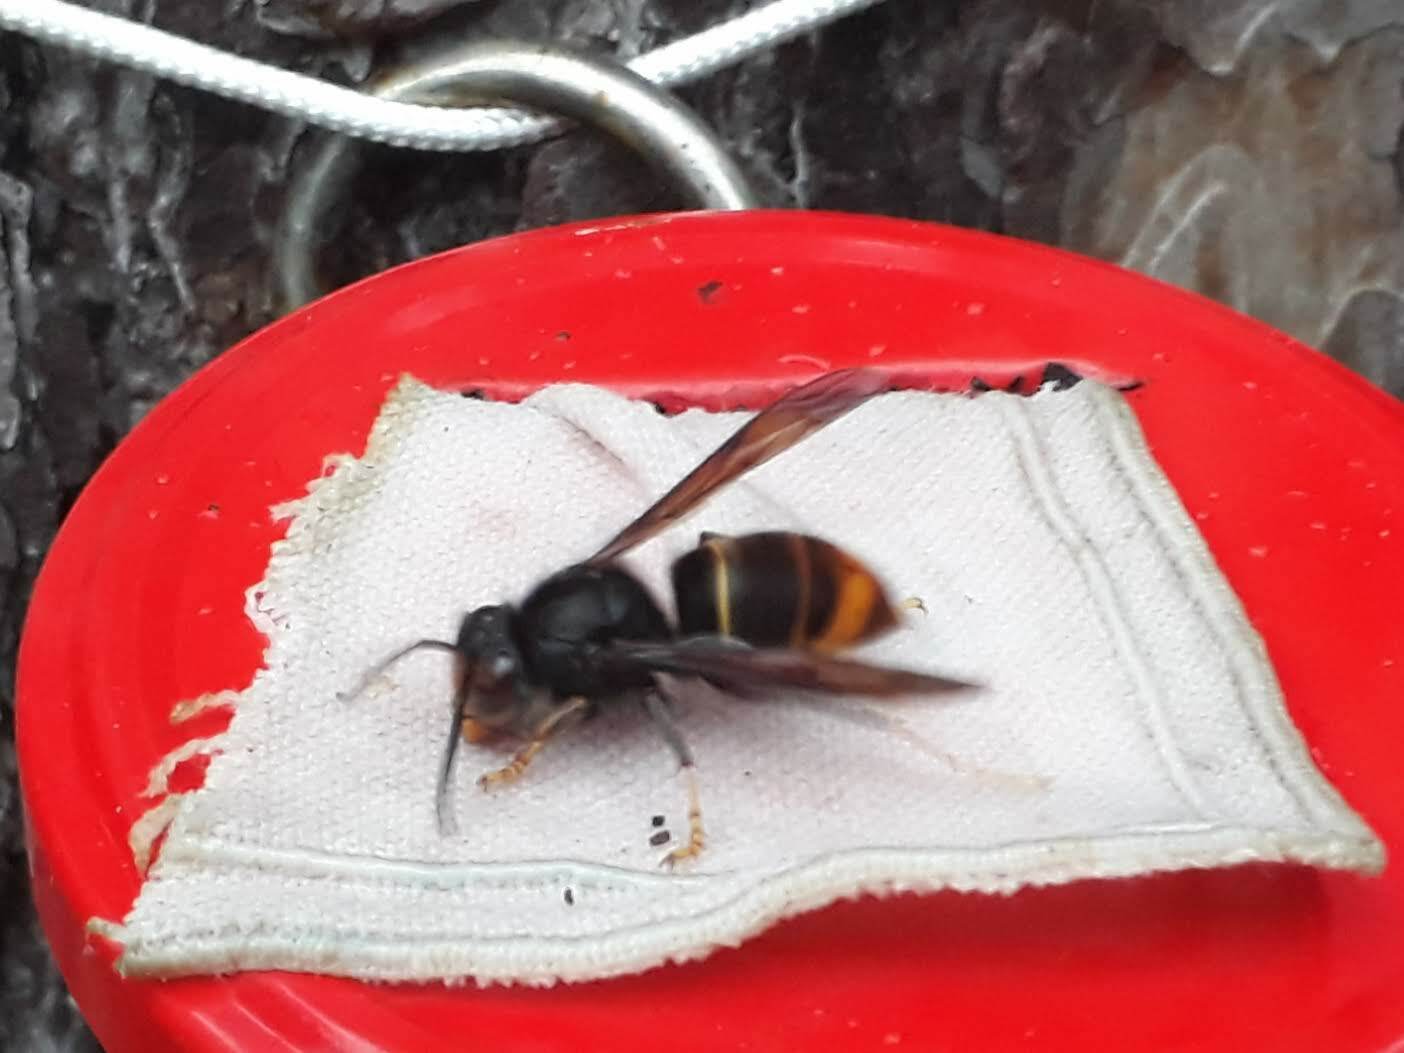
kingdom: Animalia
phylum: Arthropoda
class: Insecta
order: Hymenoptera
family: Vespidae
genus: Vespa
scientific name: Vespa velutina
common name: Asian hornet
